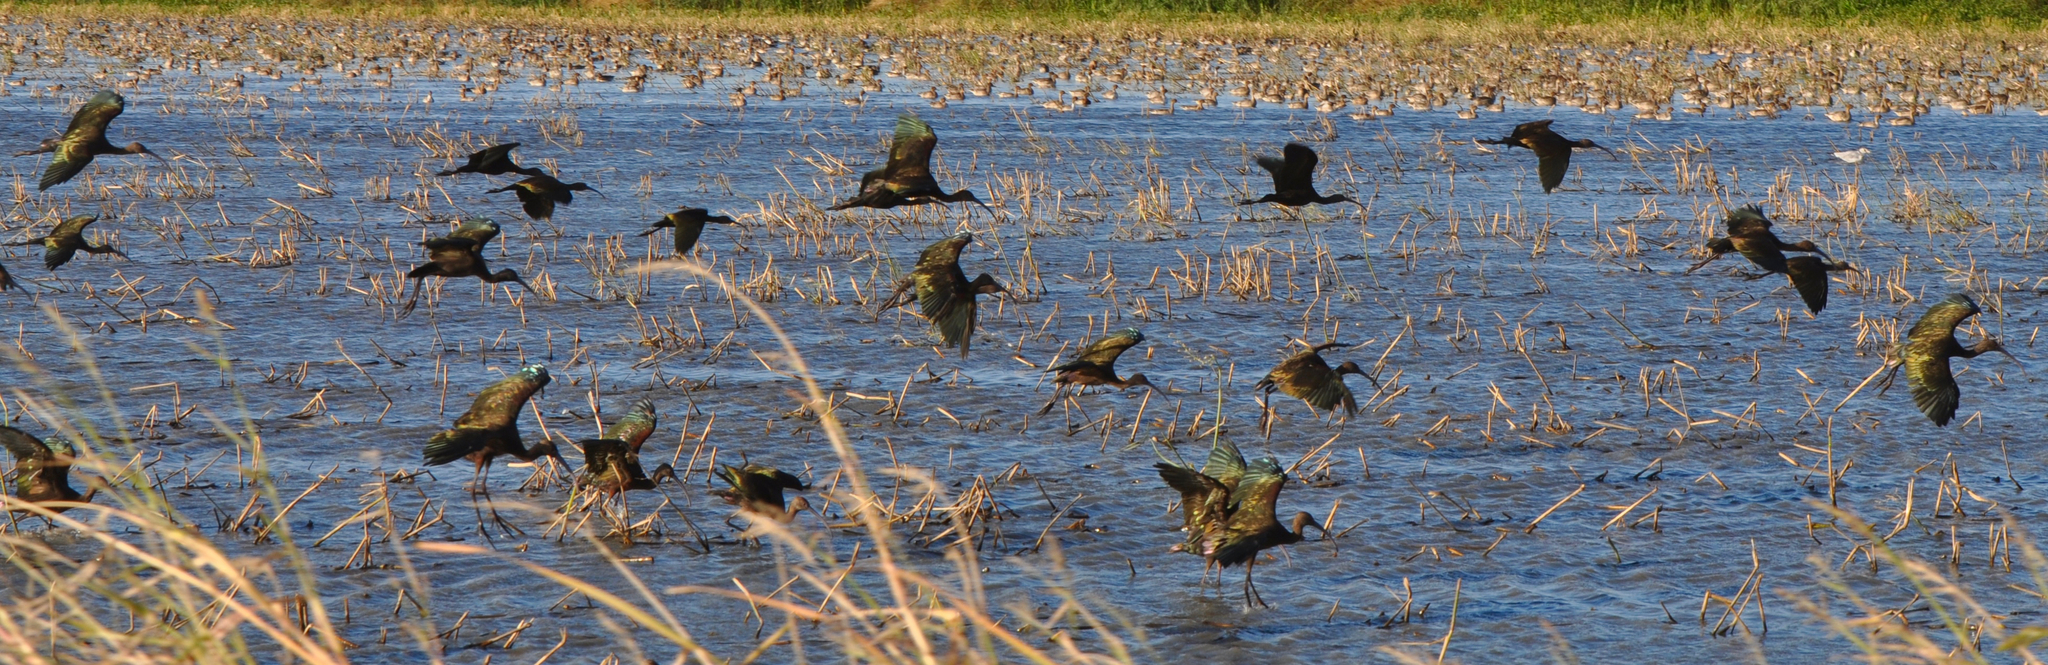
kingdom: Animalia
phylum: Chordata
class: Aves
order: Pelecaniformes
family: Threskiornithidae
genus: Plegadis
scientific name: Plegadis chihi
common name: White-faced ibis
